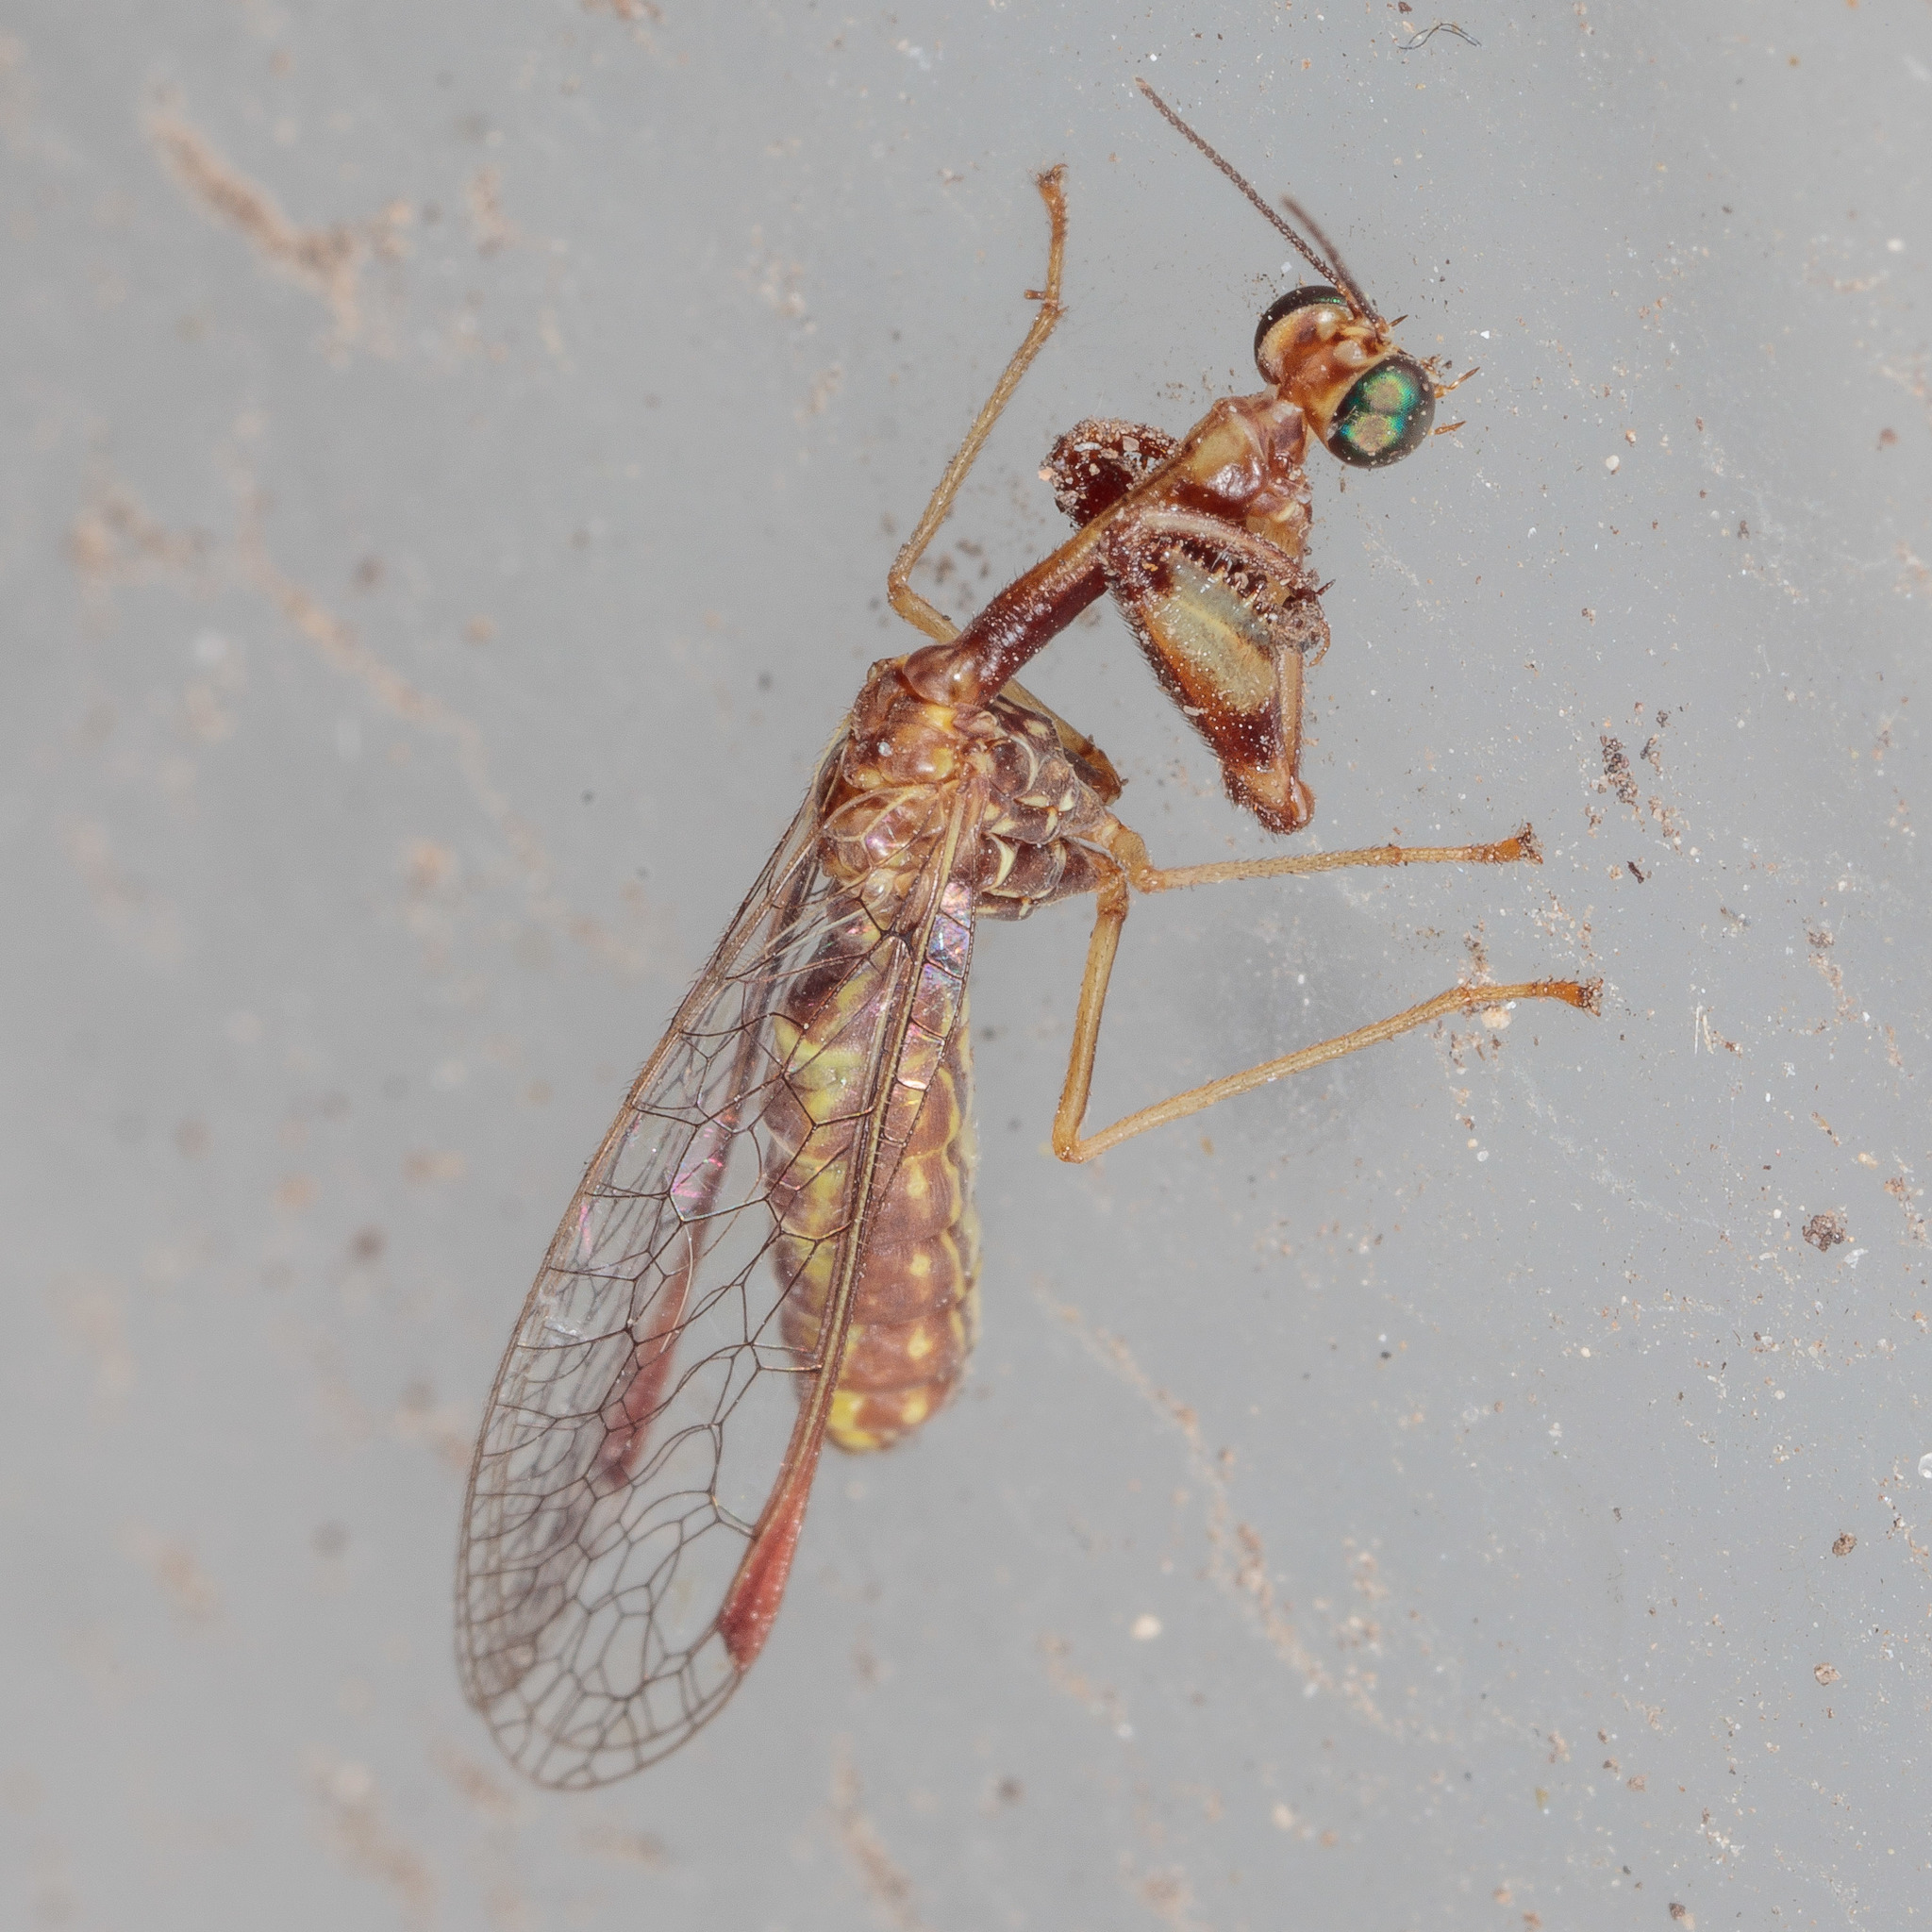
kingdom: Animalia
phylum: Arthropoda
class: Insecta
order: Neuroptera
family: Mantispidae
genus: Dicromantispa
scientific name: Dicromantispa interrupta
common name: Four-spotted mantidfly
